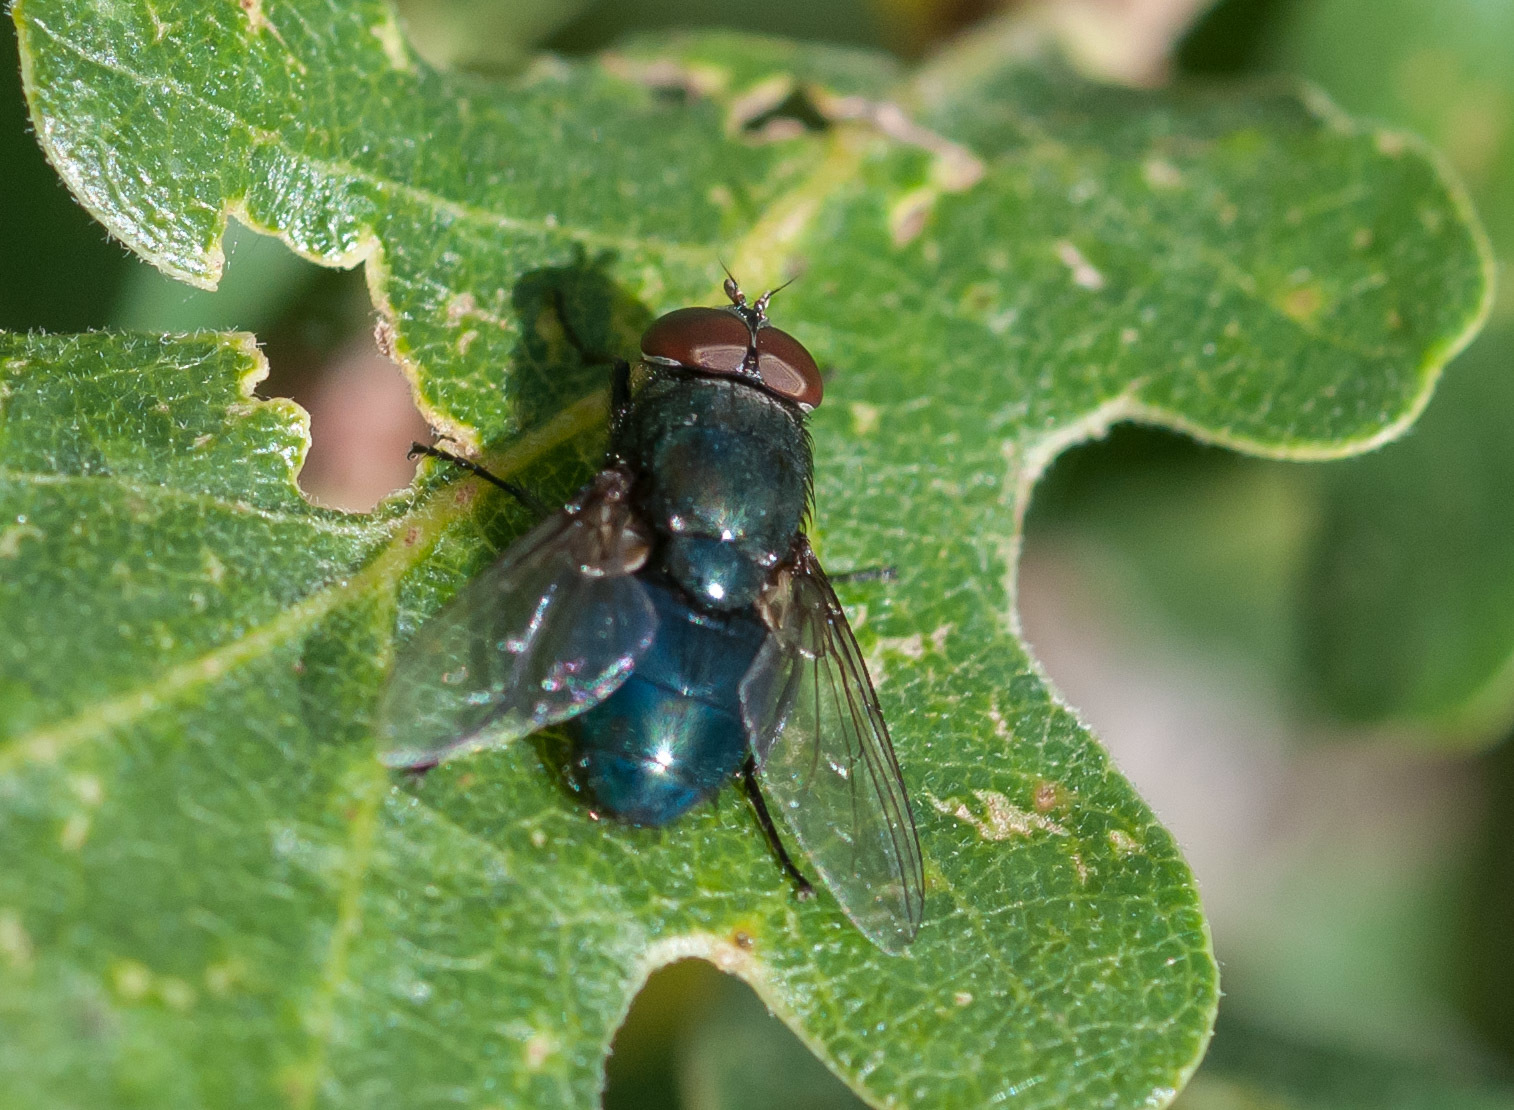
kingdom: Animalia
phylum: Arthropoda
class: Insecta
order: Diptera
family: Calliphoridae
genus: Phormia
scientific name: Phormia regina
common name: Black blow fly
